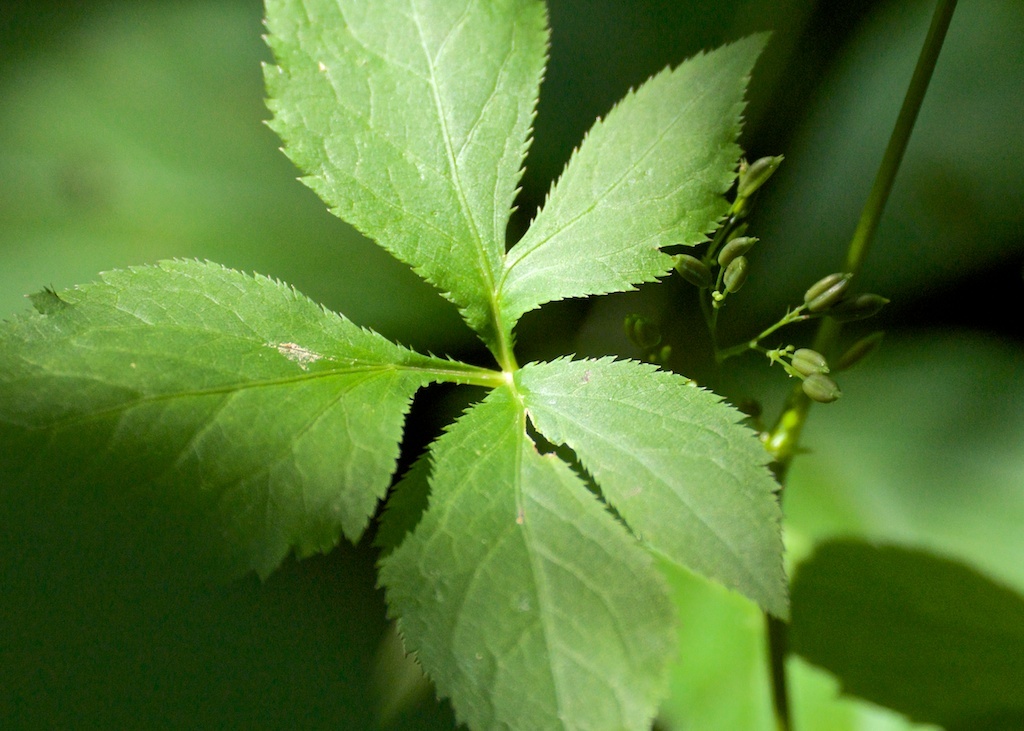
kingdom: Plantae
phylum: Tracheophyta
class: Magnoliopsida
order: Apiales
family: Apiaceae
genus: Sanicula
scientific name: Sanicula canadensis
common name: Canada sanicle
